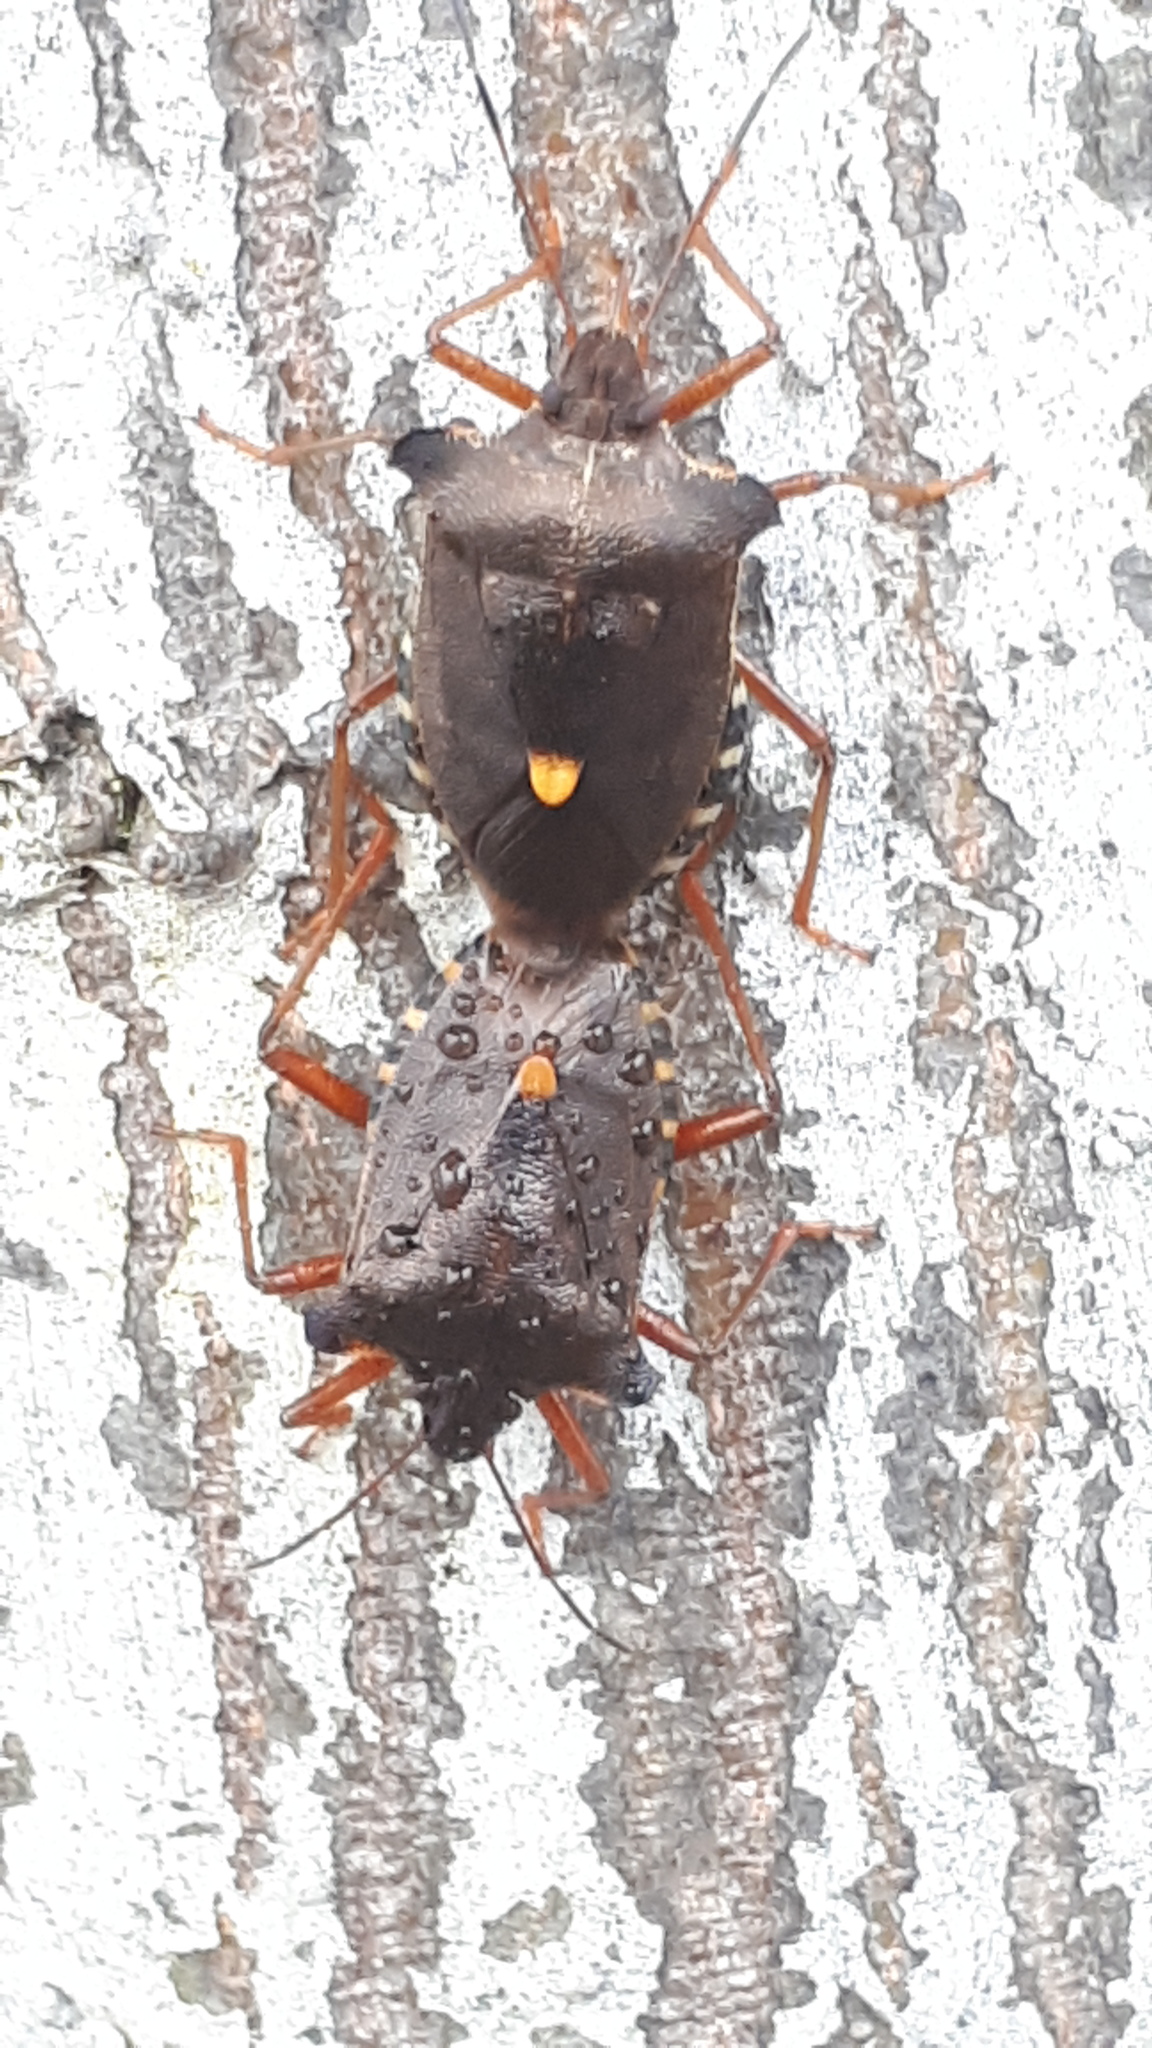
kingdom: Animalia
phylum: Arthropoda
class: Insecta
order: Hemiptera
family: Pentatomidae
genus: Pentatoma
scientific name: Pentatoma rufipes
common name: Forest bug
